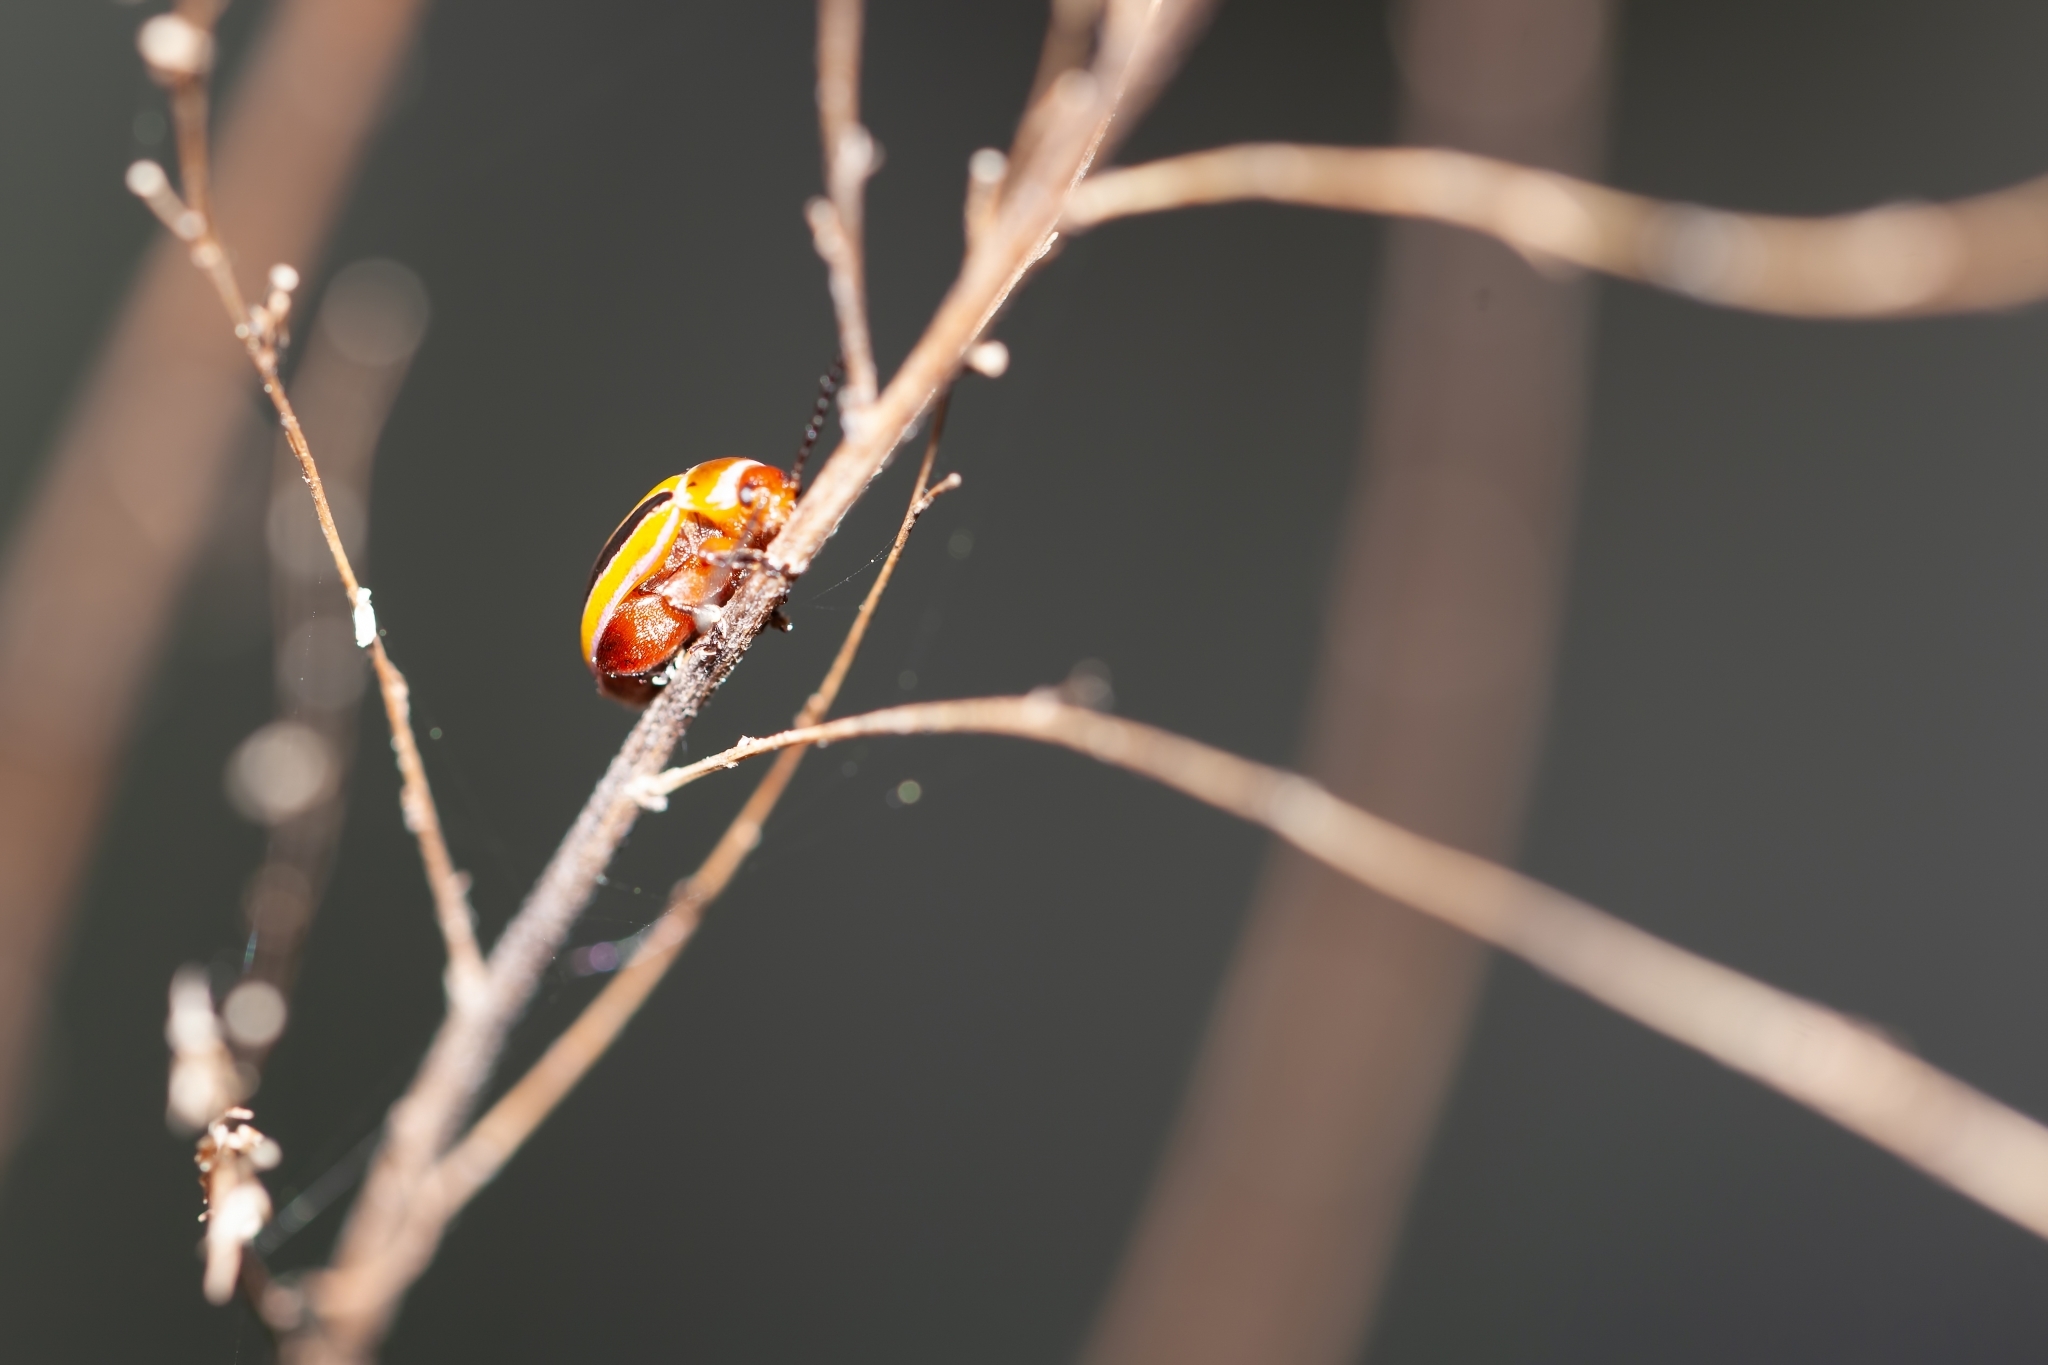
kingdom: Animalia
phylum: Arthropoda
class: Insecta
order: Coleoptera
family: Chrysomelidae
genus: Kuschelina
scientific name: Kuschelina floridana
